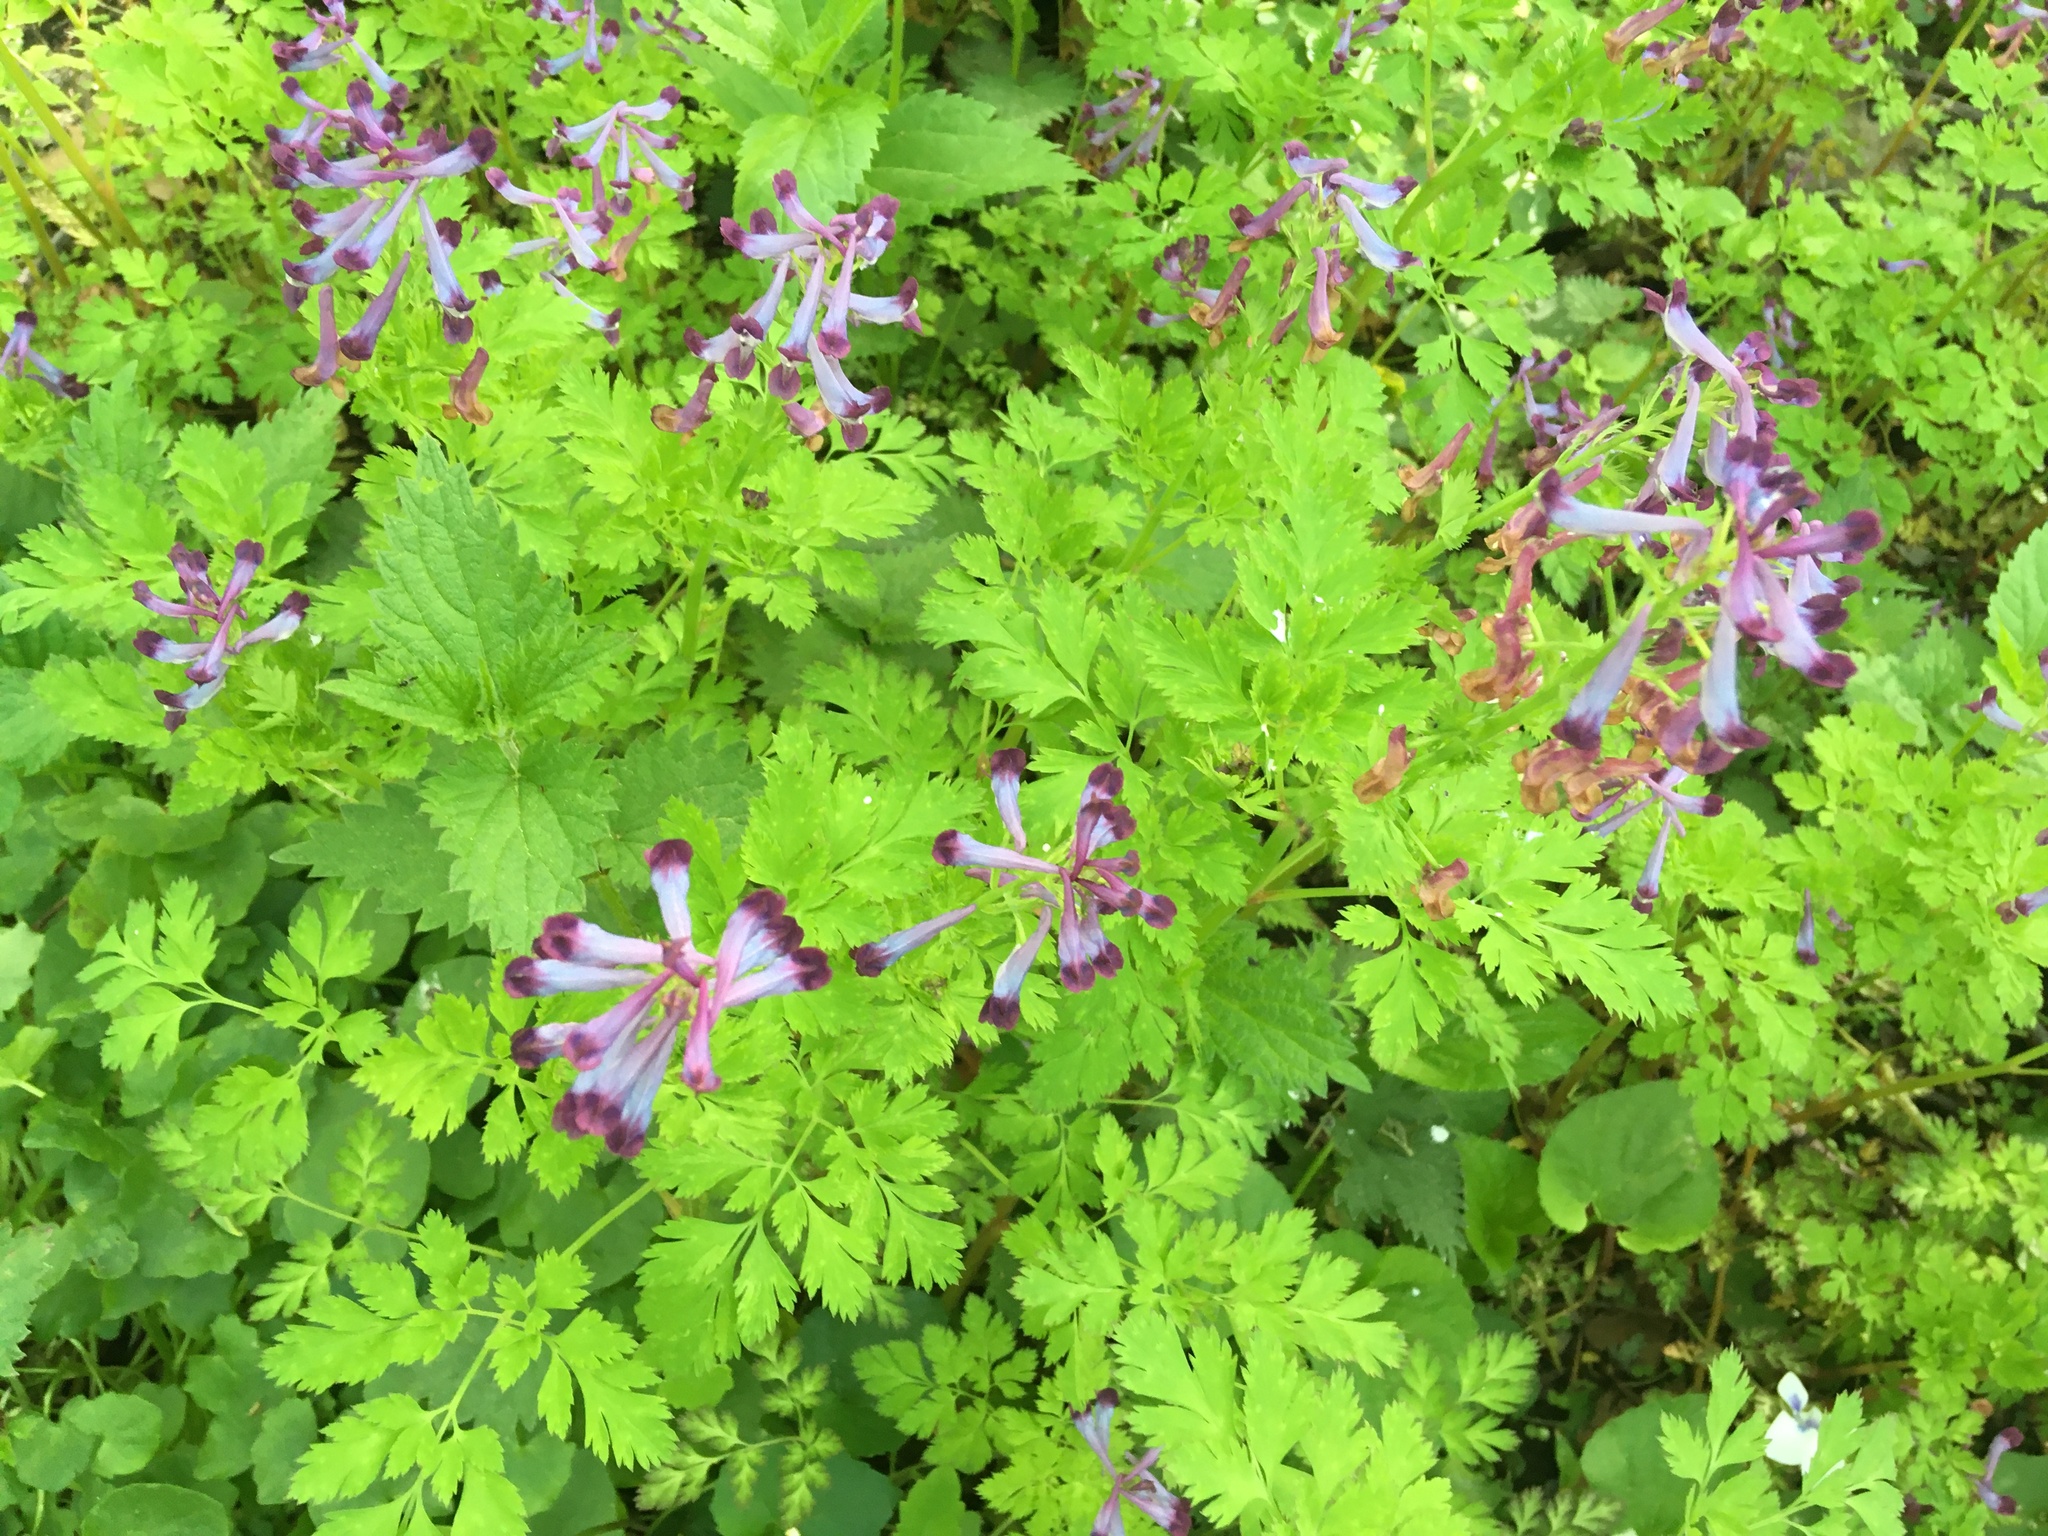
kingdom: Plantae
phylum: Tracheophyta
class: Magnoliopsida
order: Ranunculales
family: Papaveraceae
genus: Corydalis
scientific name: Corydalis incisa
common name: Incised fumewort
